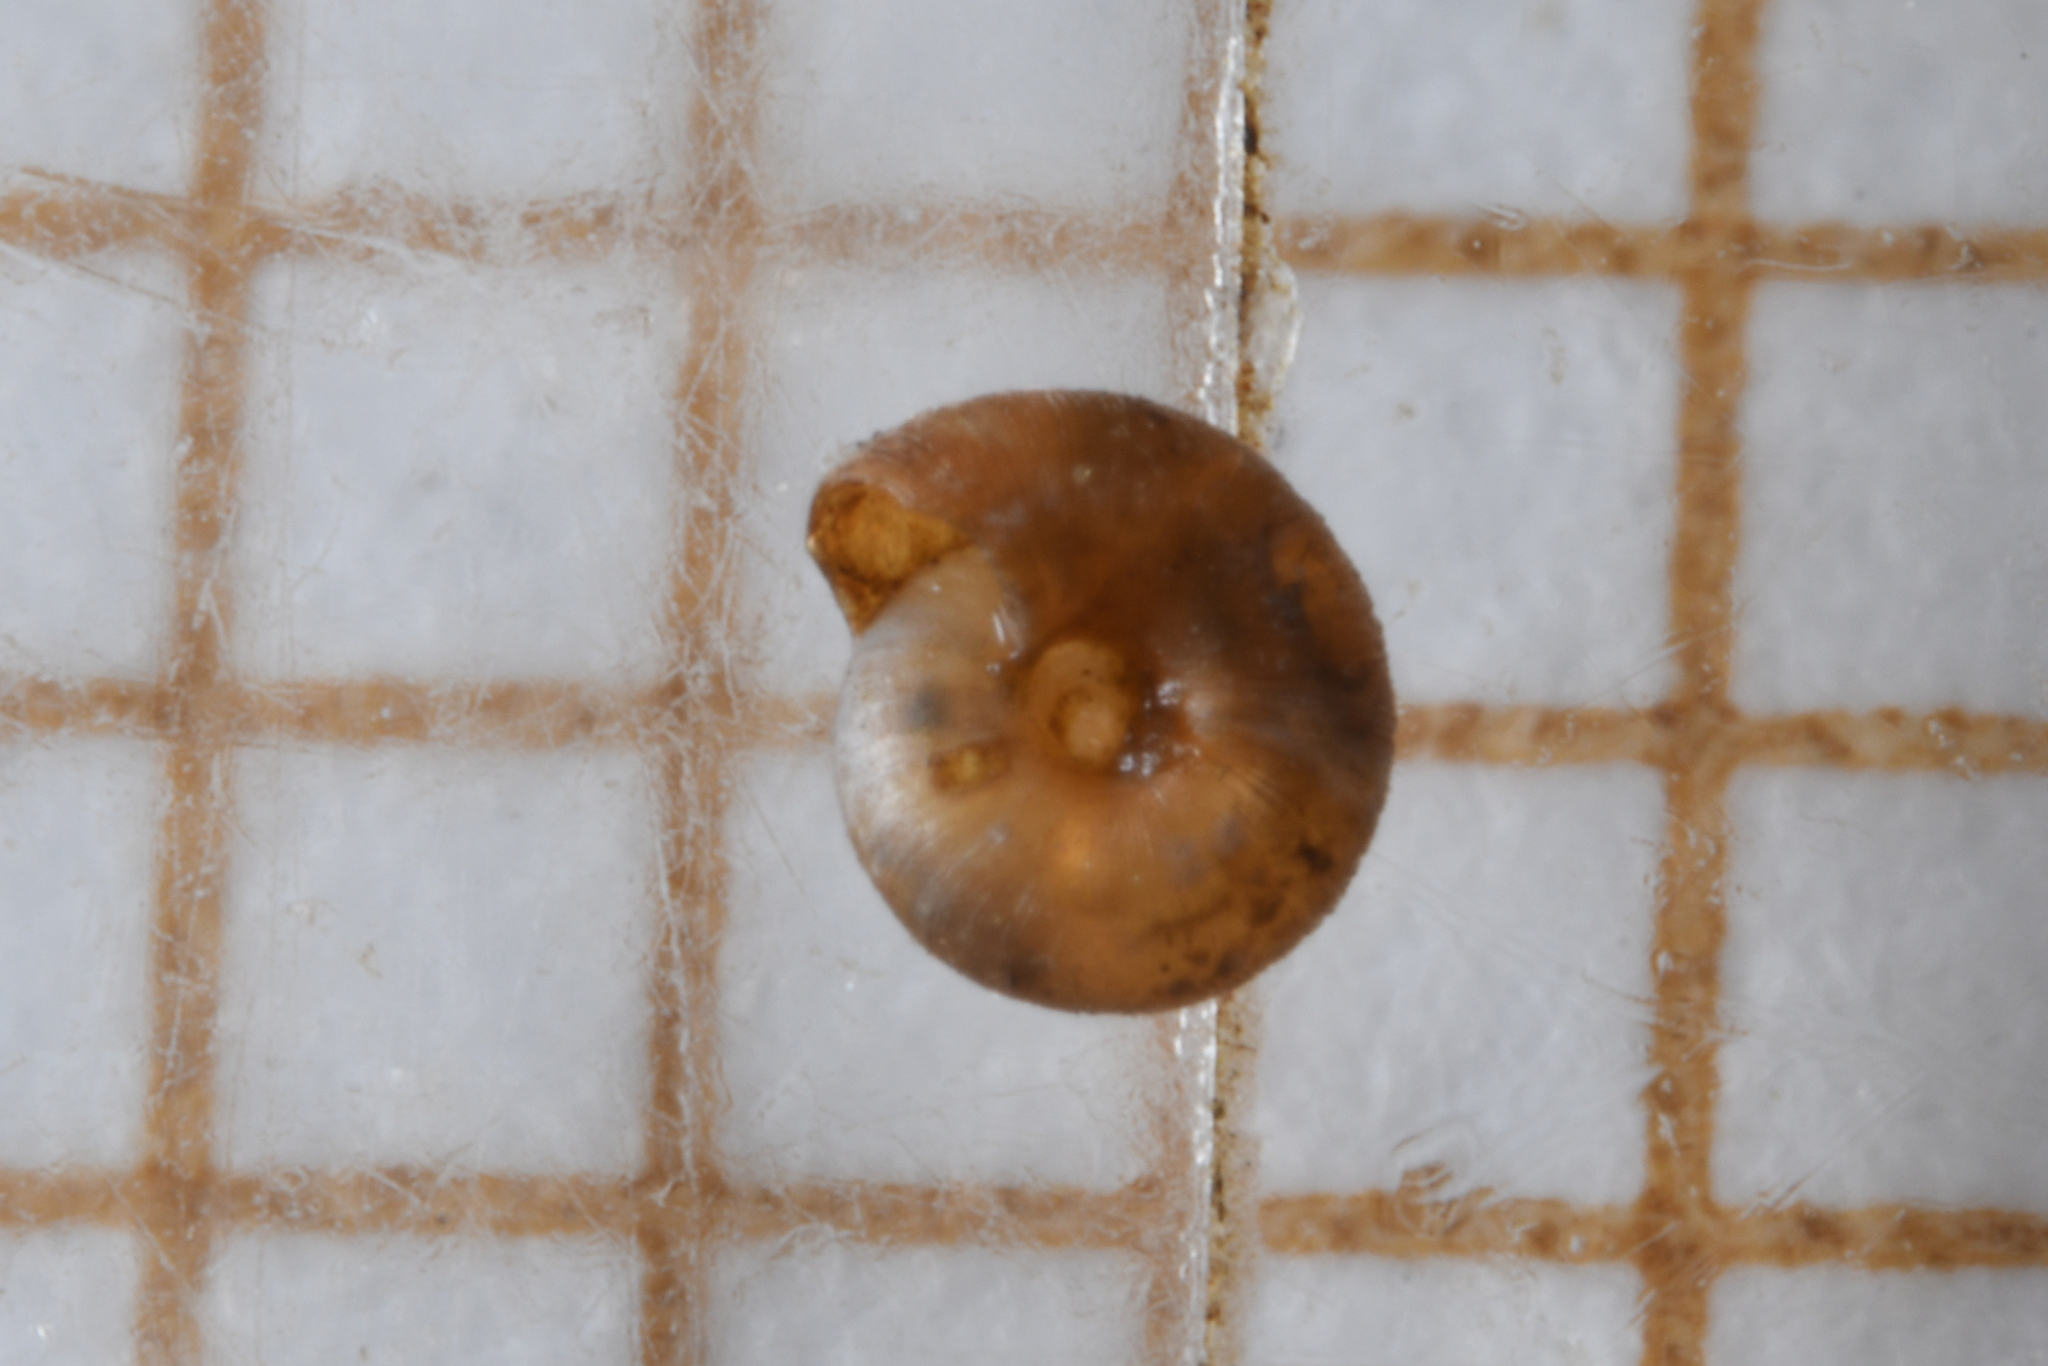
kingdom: Animalia
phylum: Mollusca
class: Gastropoda
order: Stylommatophora
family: Punctidae
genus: Punctum
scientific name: Punctum pygmaeum
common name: Dwarf snail
